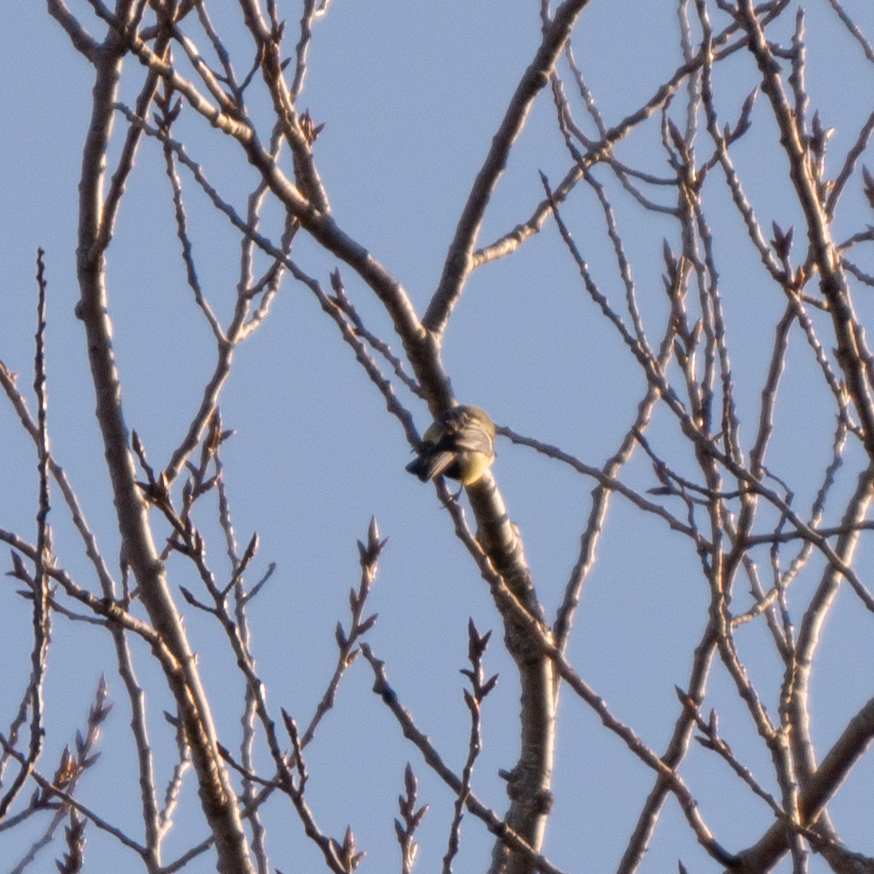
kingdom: Animalia
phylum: Chordata
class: Aves
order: Passeriformes
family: Paridae
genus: Parus
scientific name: Parus major
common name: Great tit
